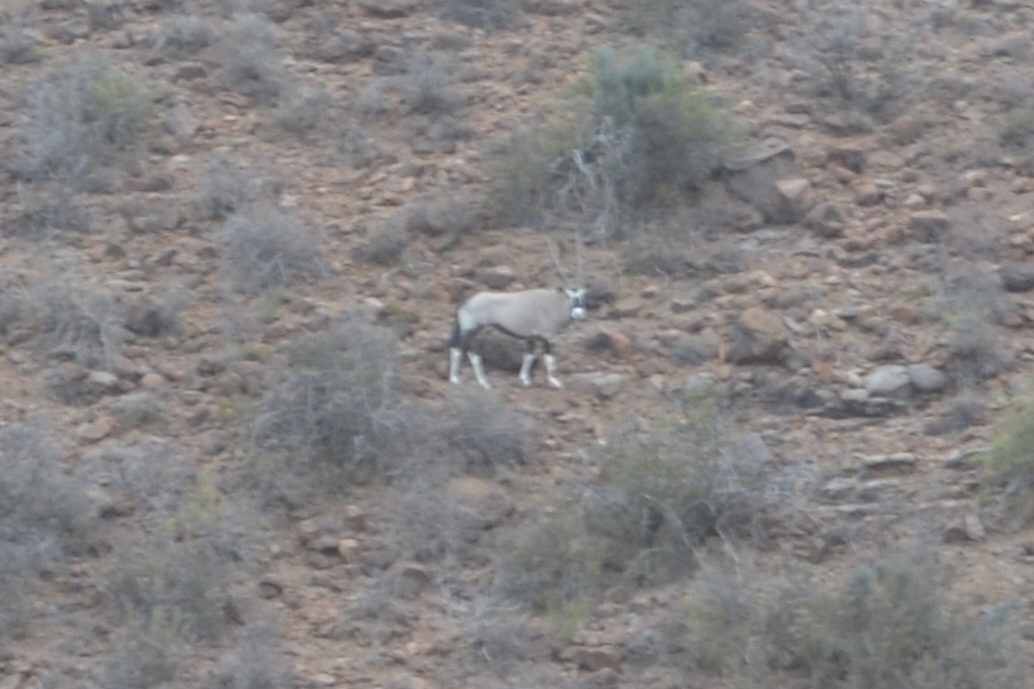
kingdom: Animalia
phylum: Chordata
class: Mammalia
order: Artiodactyla
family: Bovidae
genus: Oryx
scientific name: Oryx gazella
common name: Gemsbok
